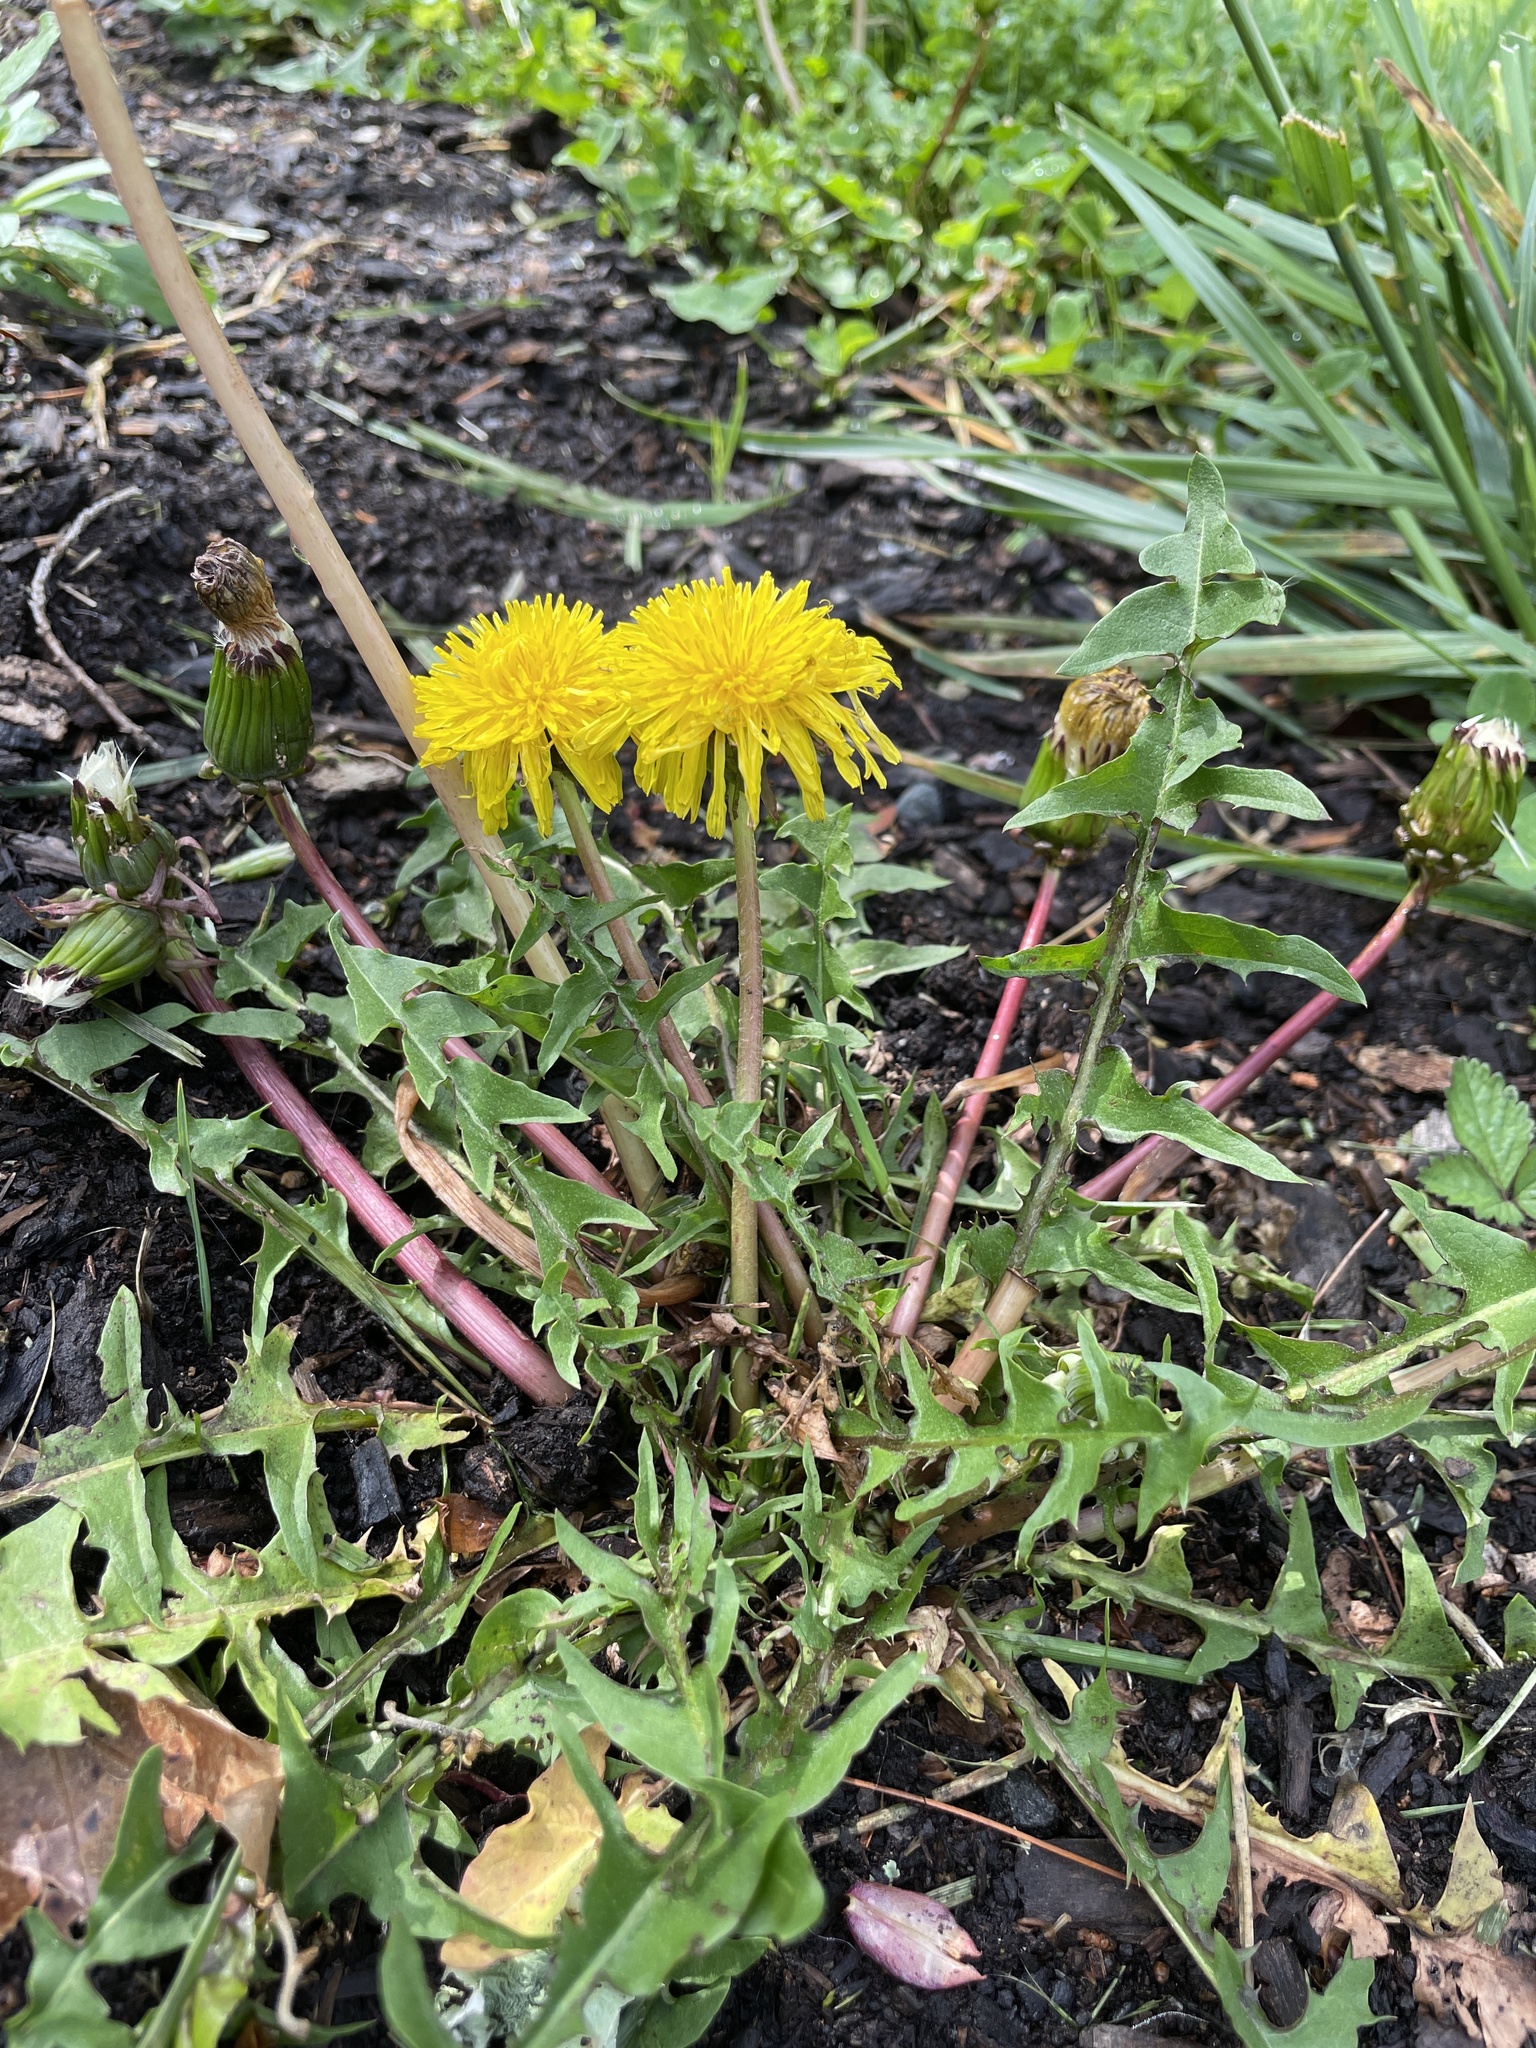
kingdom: Plantae
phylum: Tracheophyta
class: Magnoliopsida
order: Asterales
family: Asteraceae
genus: Taraxacum
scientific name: Taraxacum officinale
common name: Common dandelion
